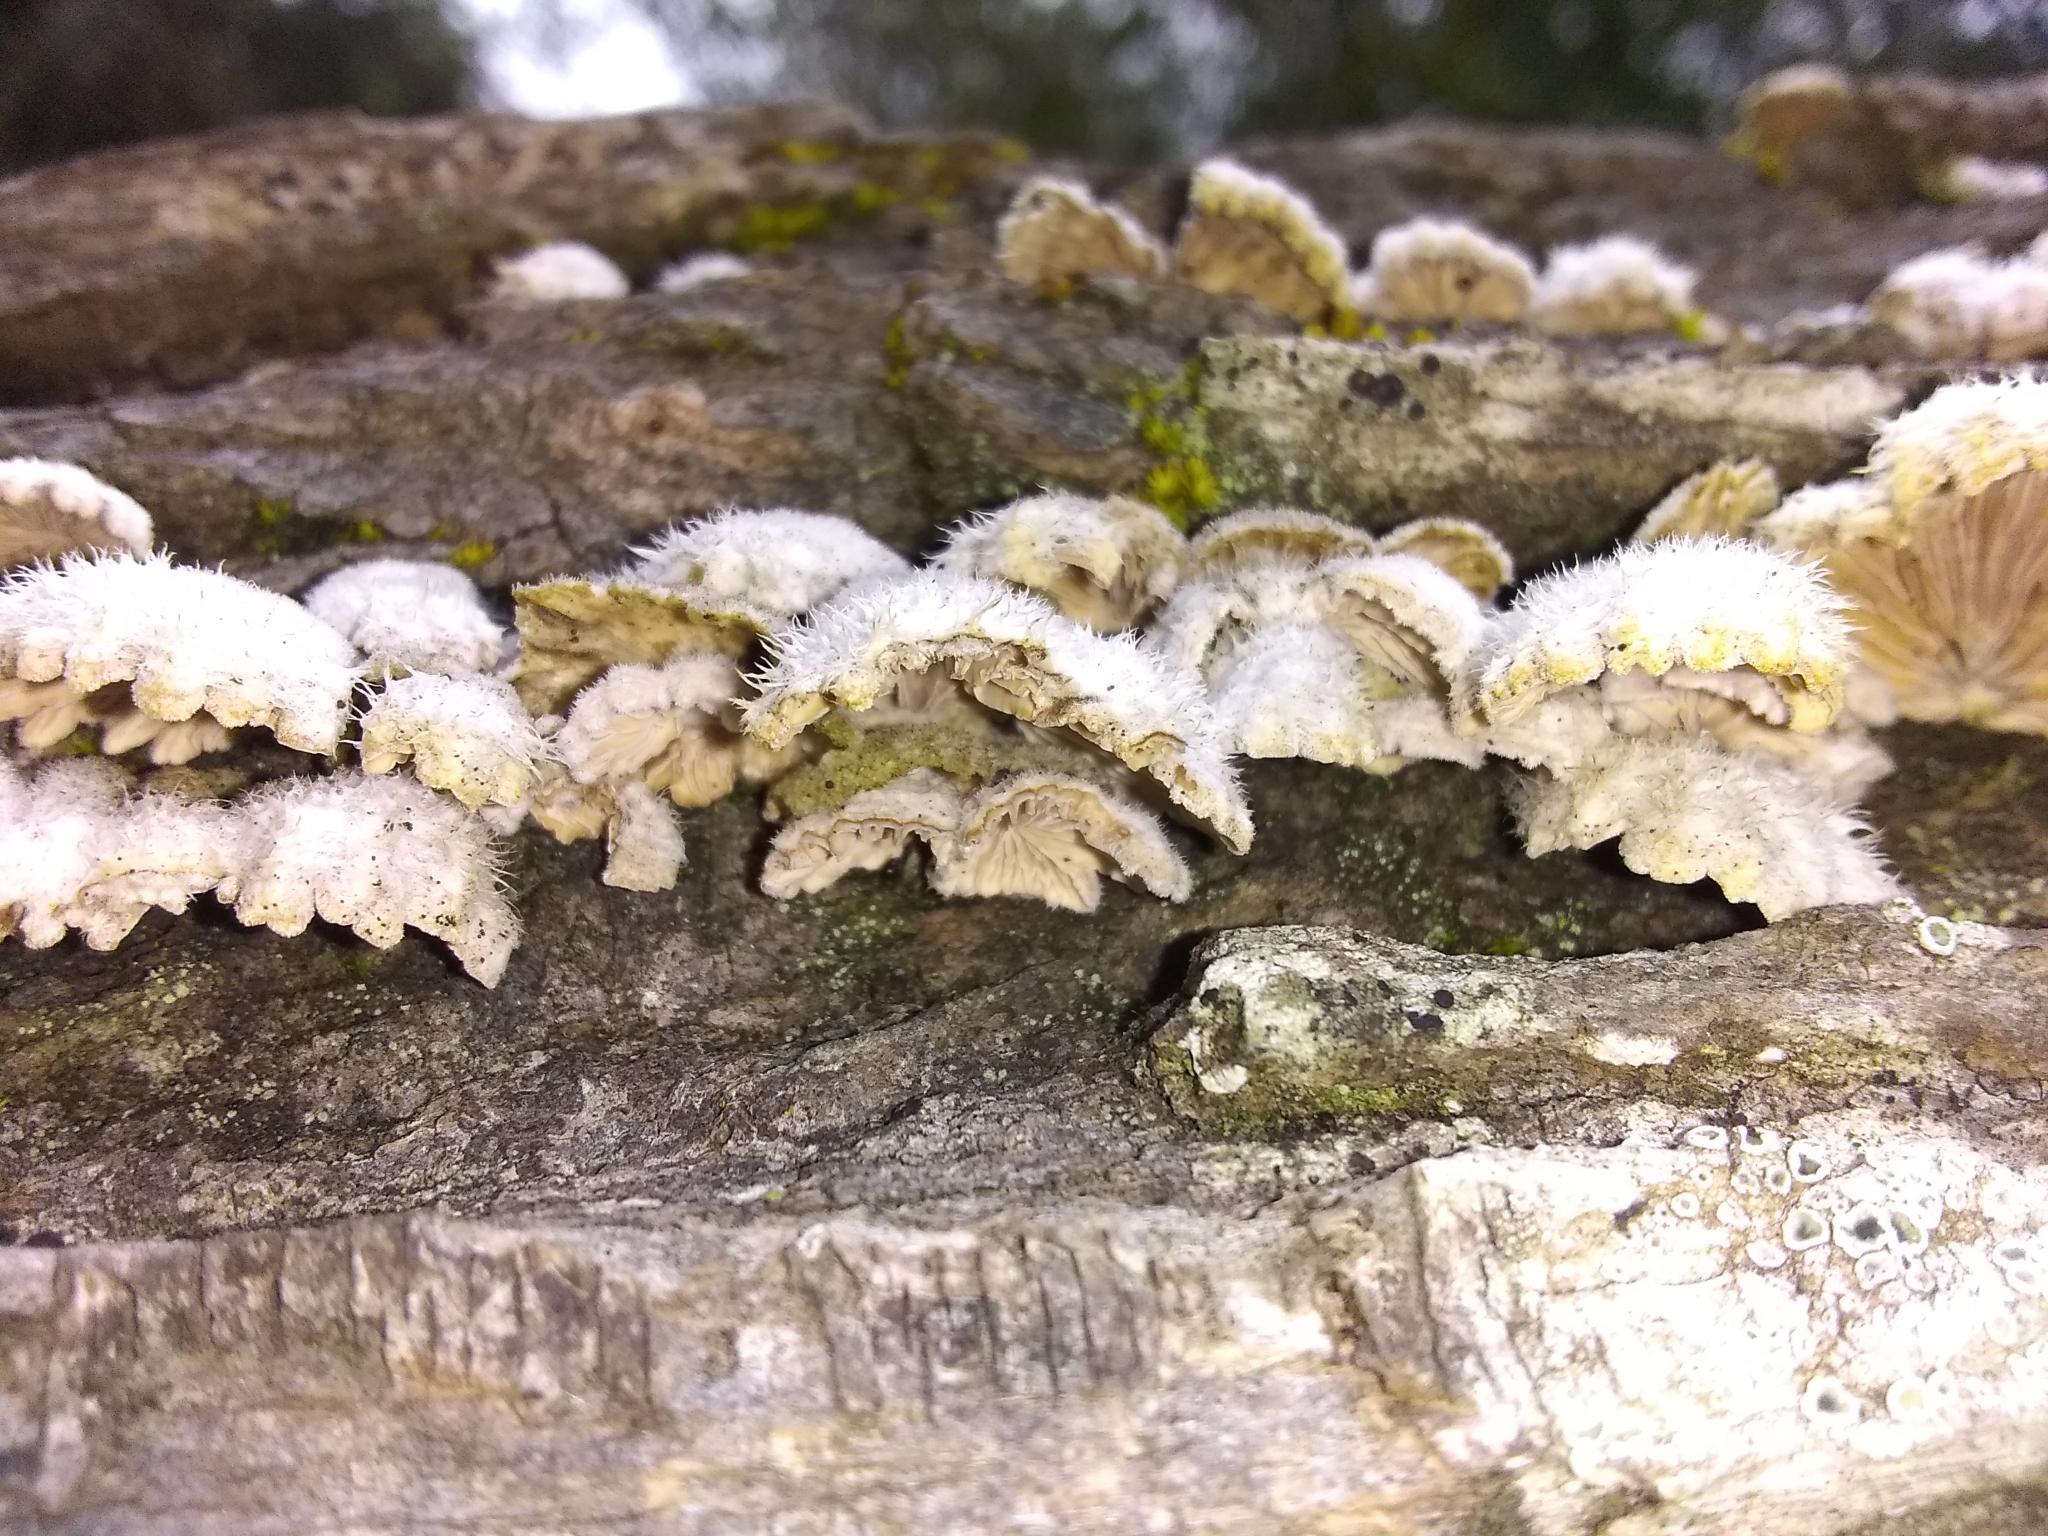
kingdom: Fungi
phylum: Basidiomycota
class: Agaricomycetes
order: Agaricales
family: Schizophyllaceae
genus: Schizophyllum
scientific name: Schizophyllum commune
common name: Common porecrust
